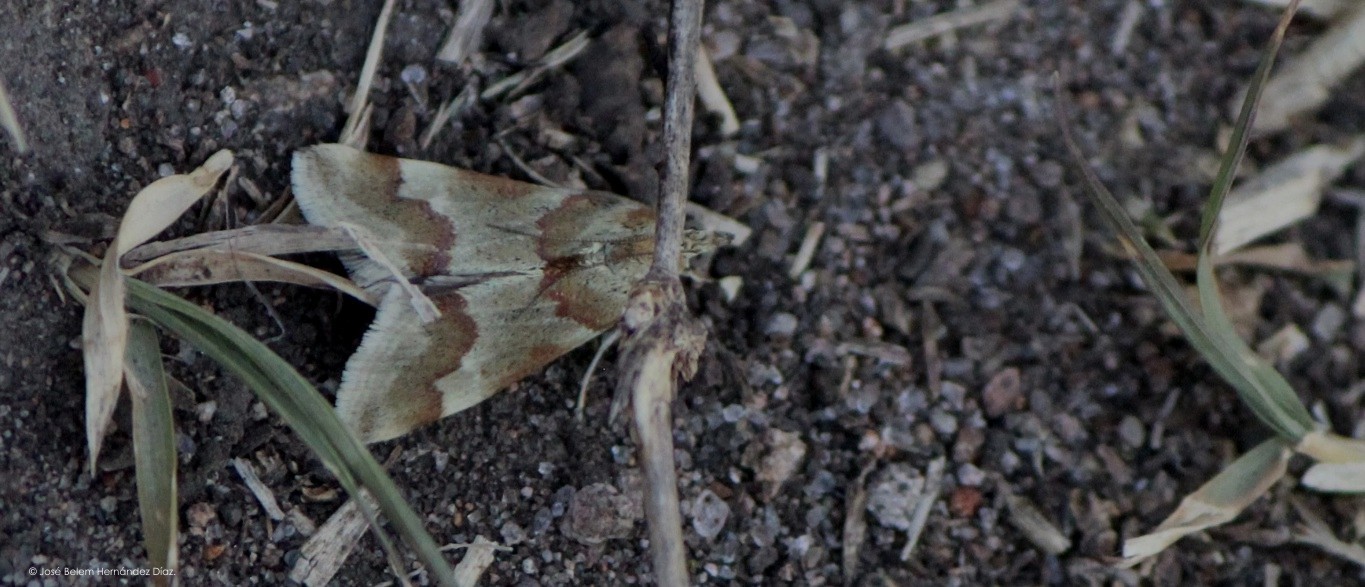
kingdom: Animalia
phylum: Arthropoda
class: Insecta
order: Lepidoptera
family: Crambidae
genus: Noctuelia
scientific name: Noctuelia Mimoschinia rufofascialis
